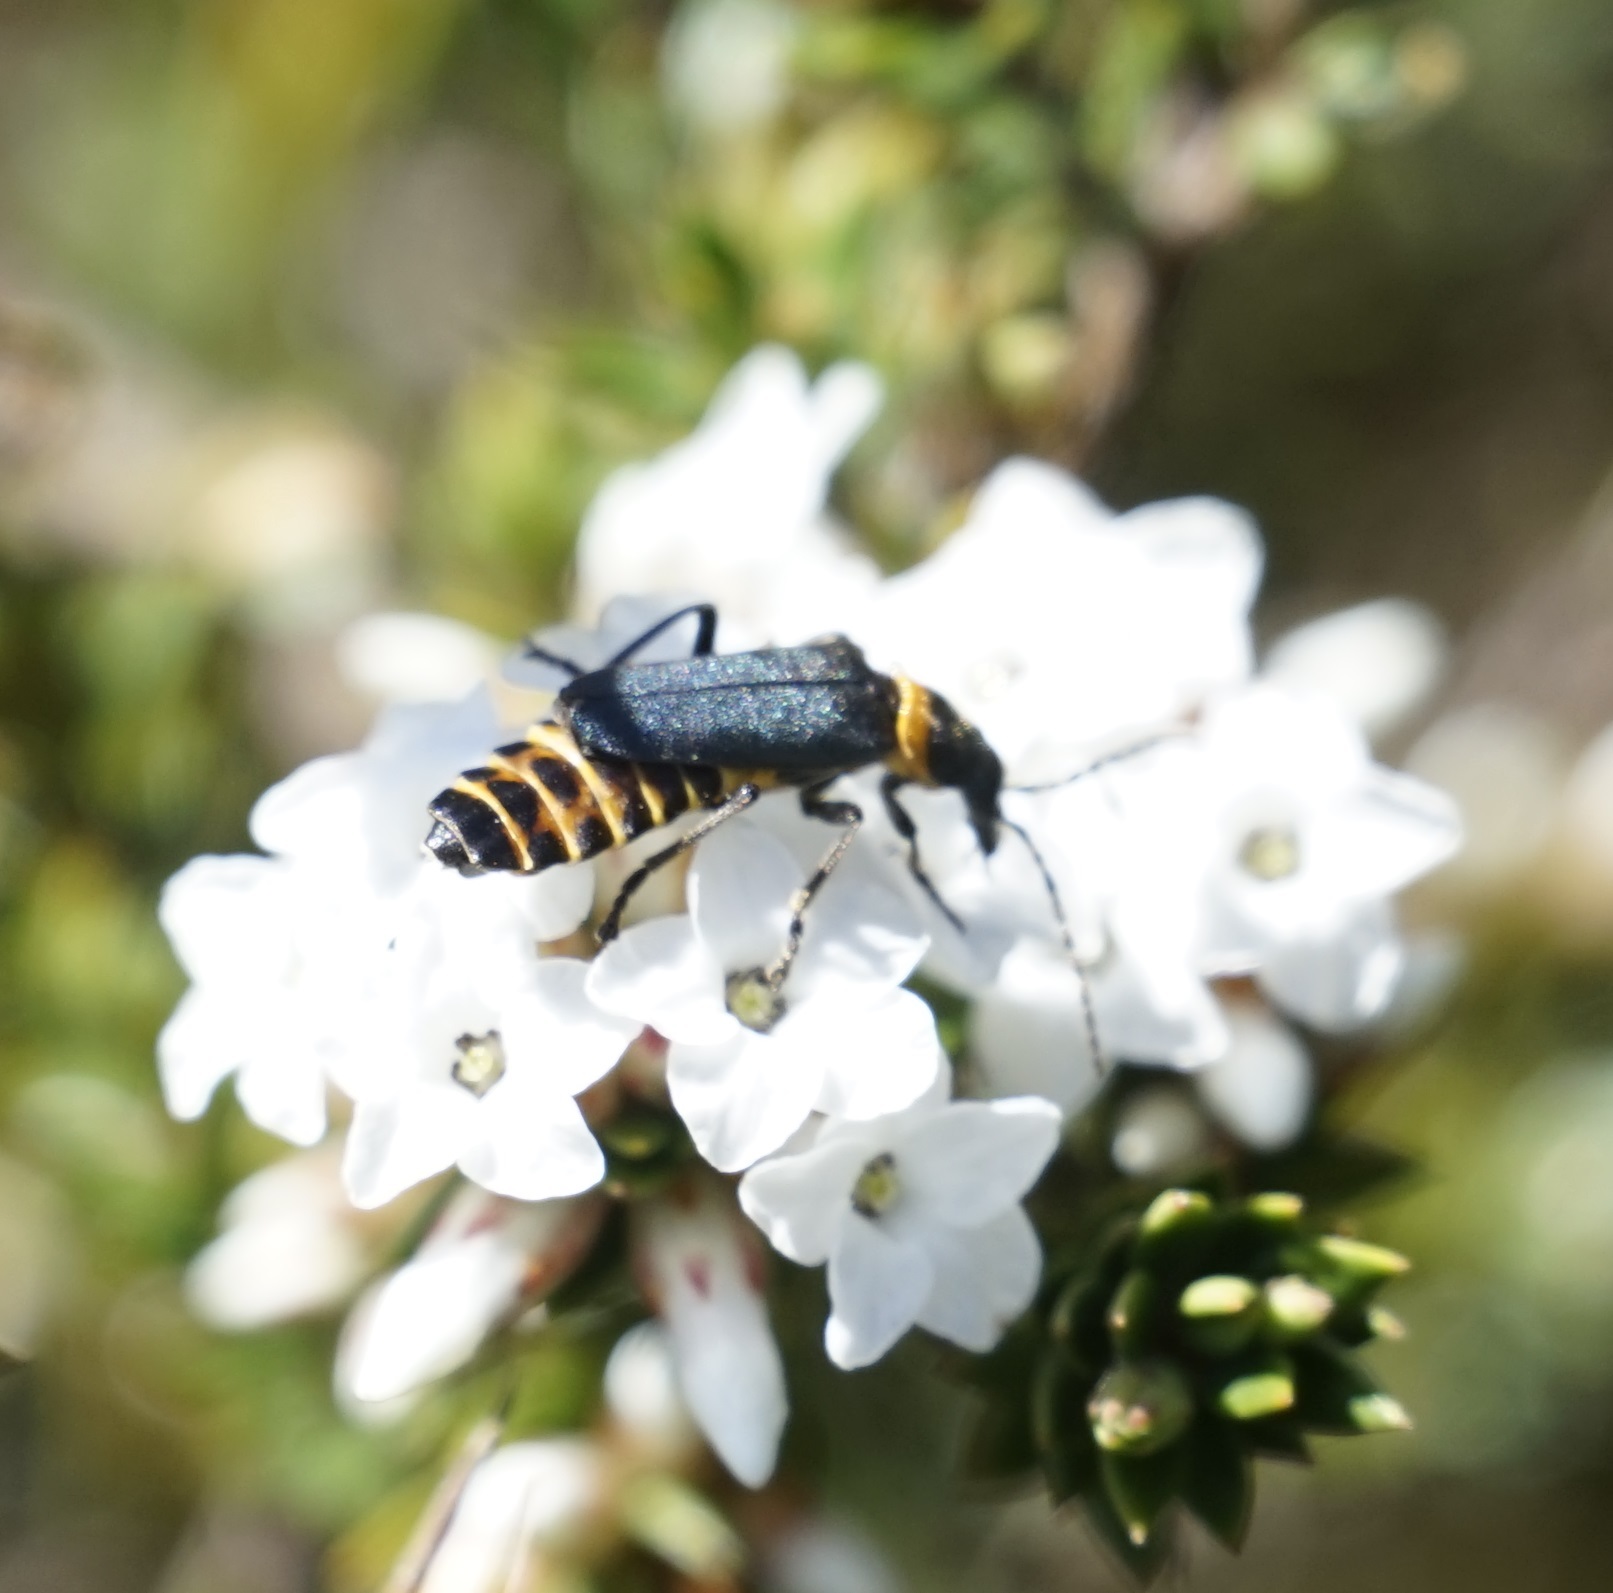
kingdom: Animalia
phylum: Arthropoda
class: Insecta
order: Coleoptera
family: Cantharidae
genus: Chauliognathus
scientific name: Chauliognathus
